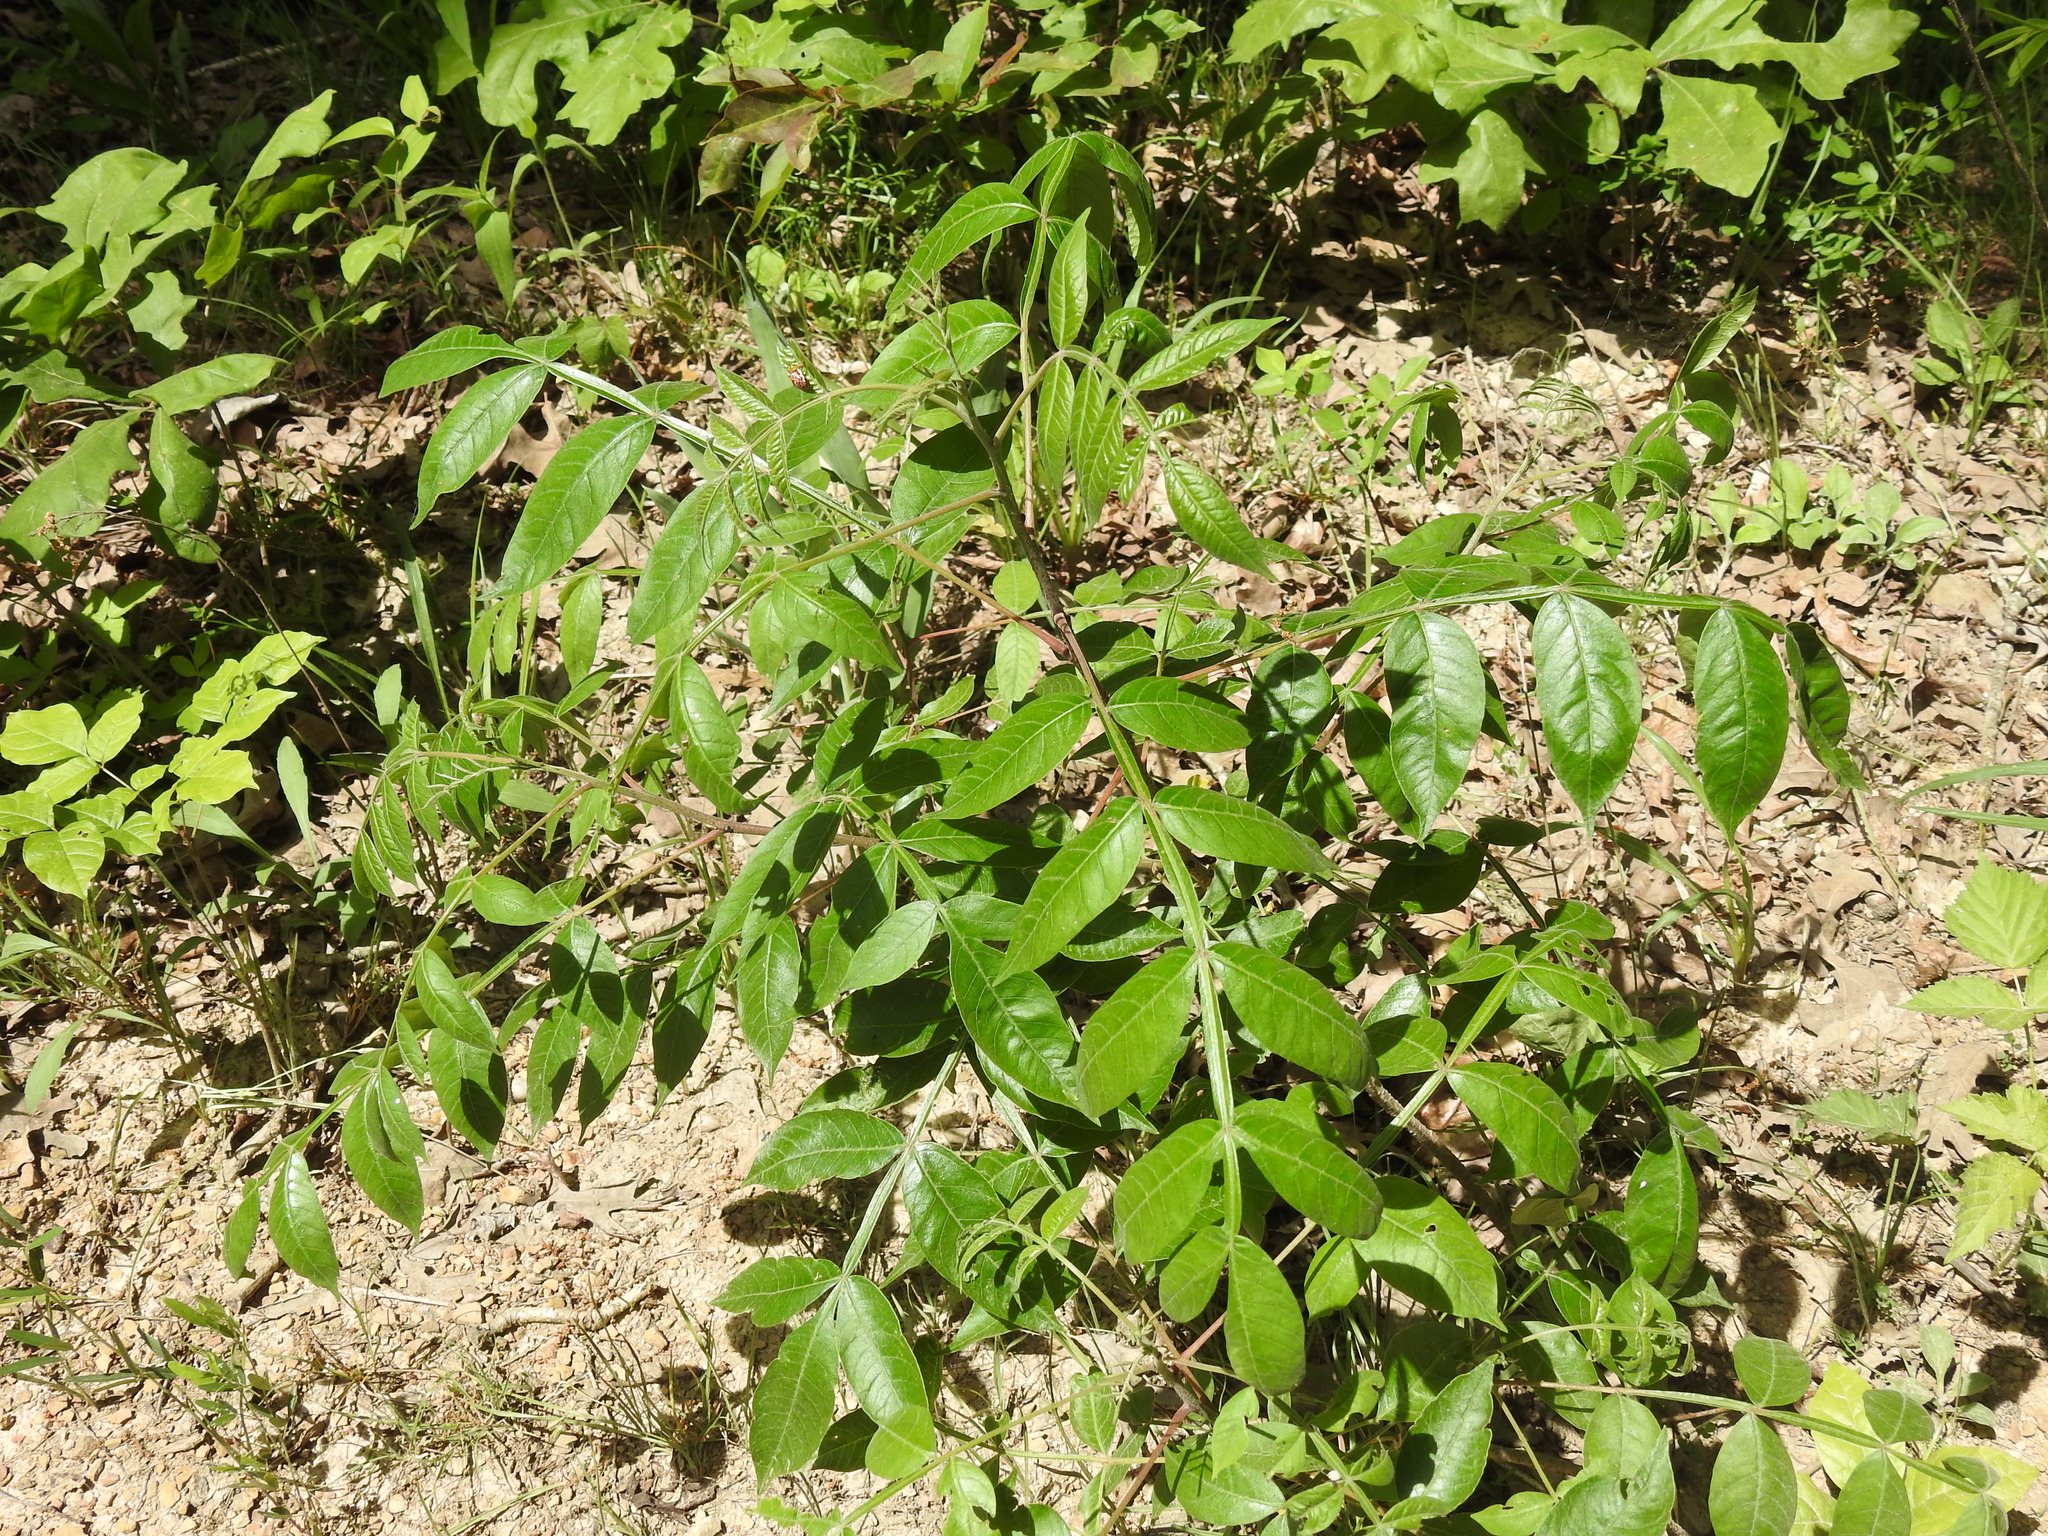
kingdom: Plantae
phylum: Tracheophyta
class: Magnoliopsida
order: Sapindales
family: Anacardiaceae
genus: Rhus
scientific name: Rhus copallina
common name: Shining sumac
